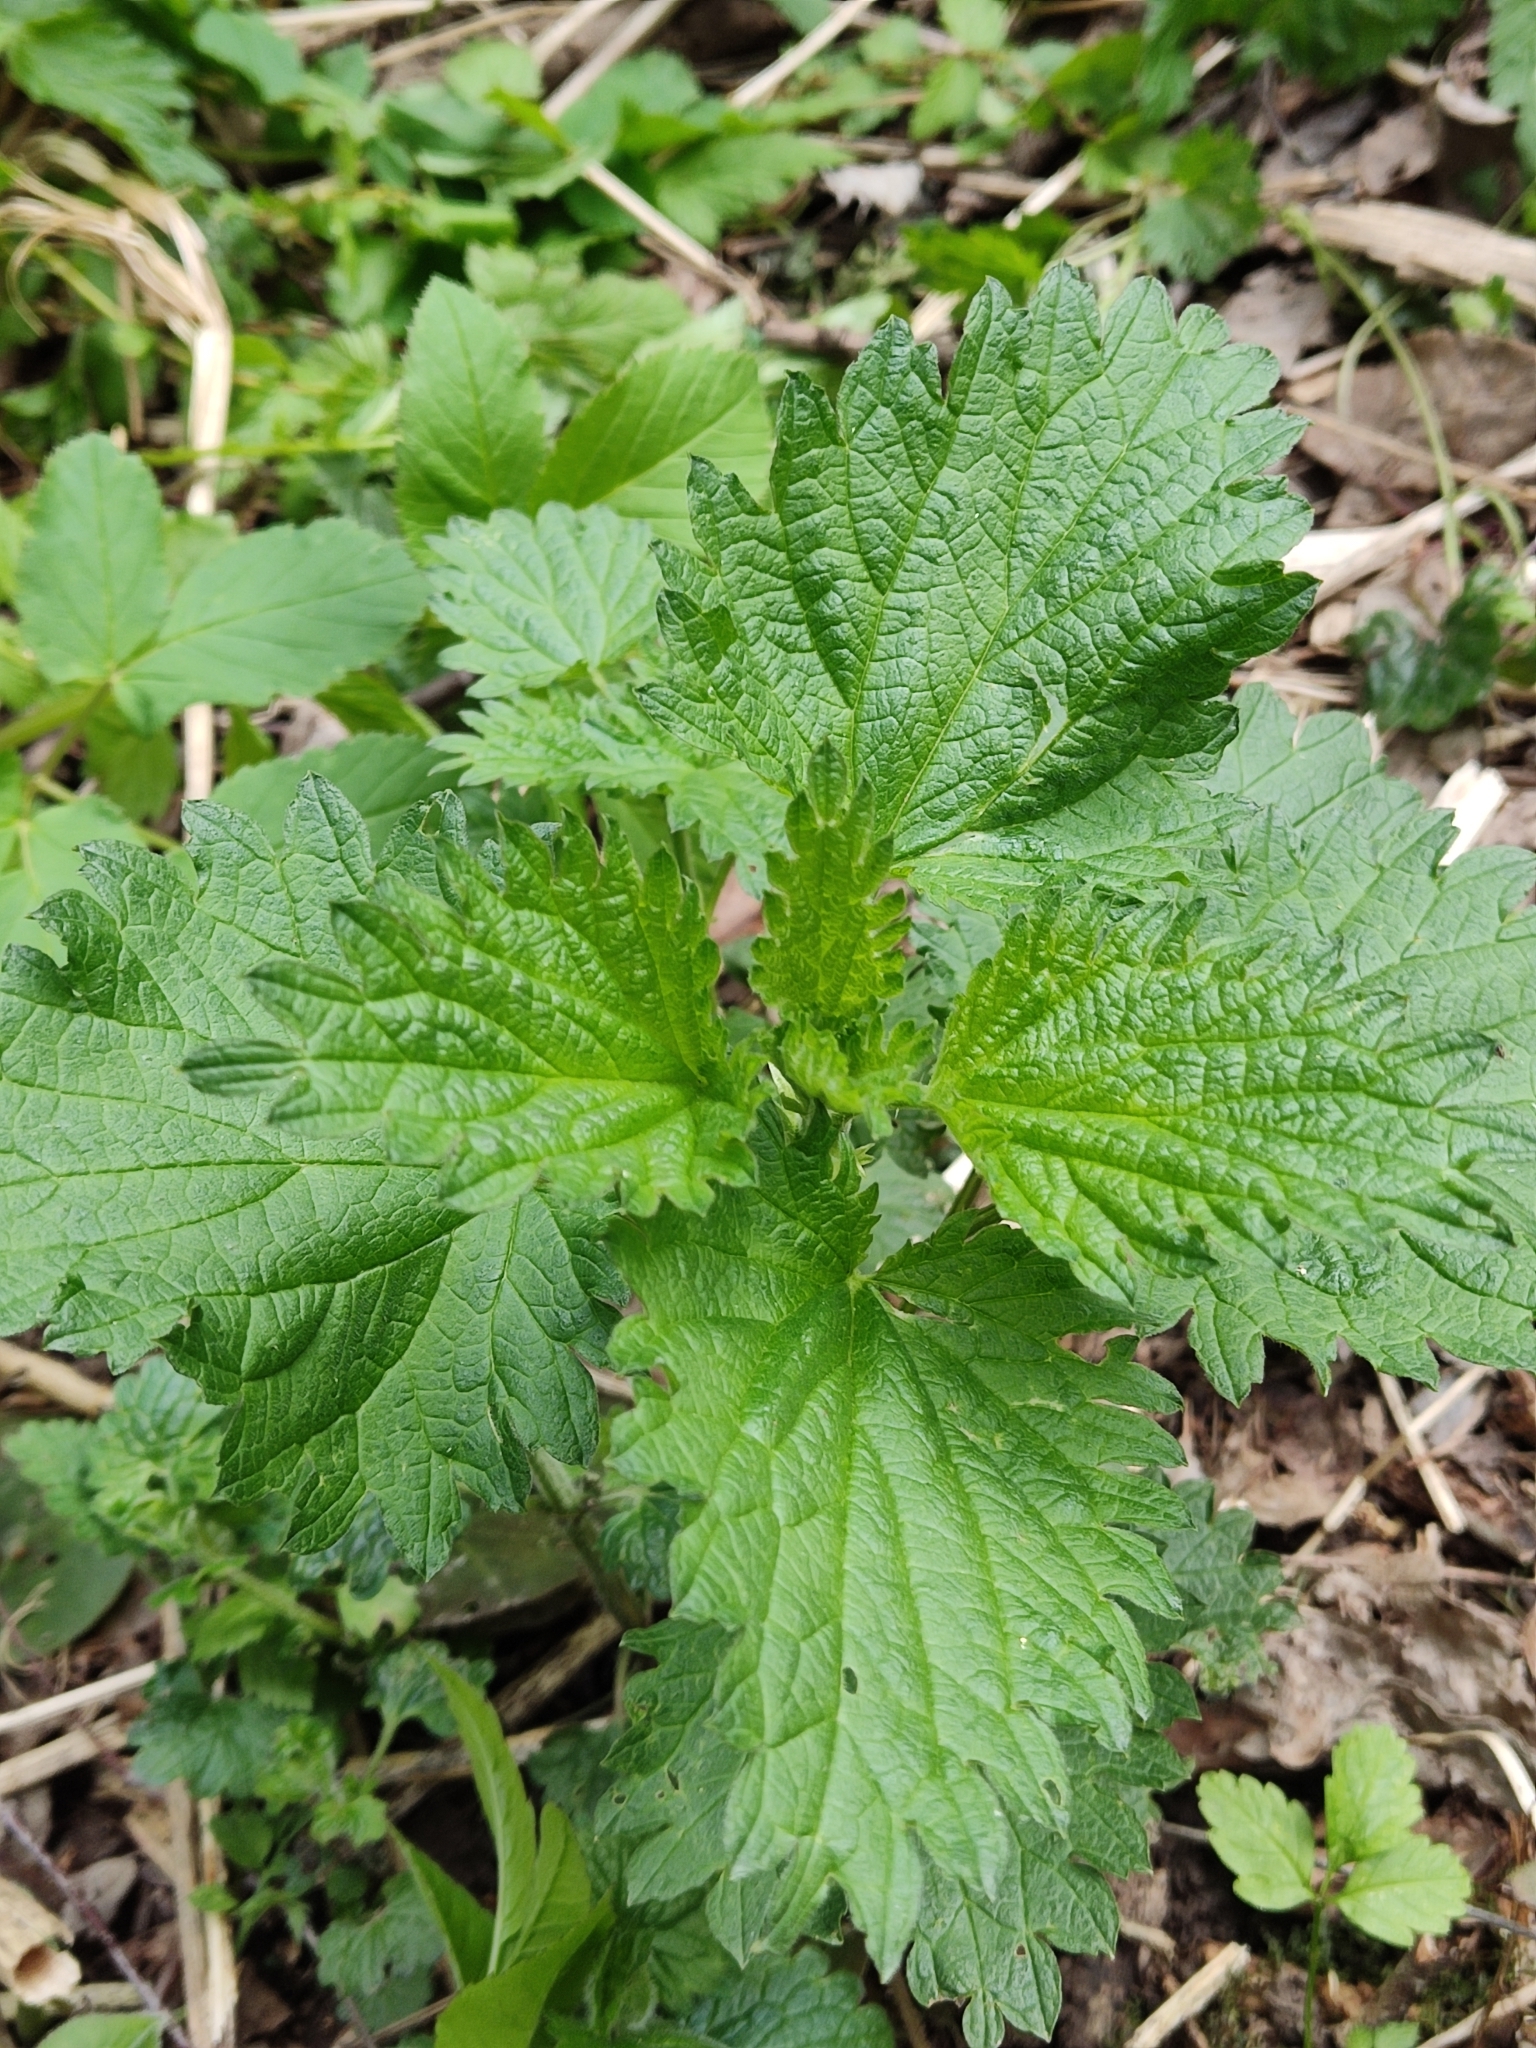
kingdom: Plantae
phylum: Tracheophyta
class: Magnoliopsida
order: Rosales
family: Urticaceae
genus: Urtica
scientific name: Urtica dioica
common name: Common nettle
